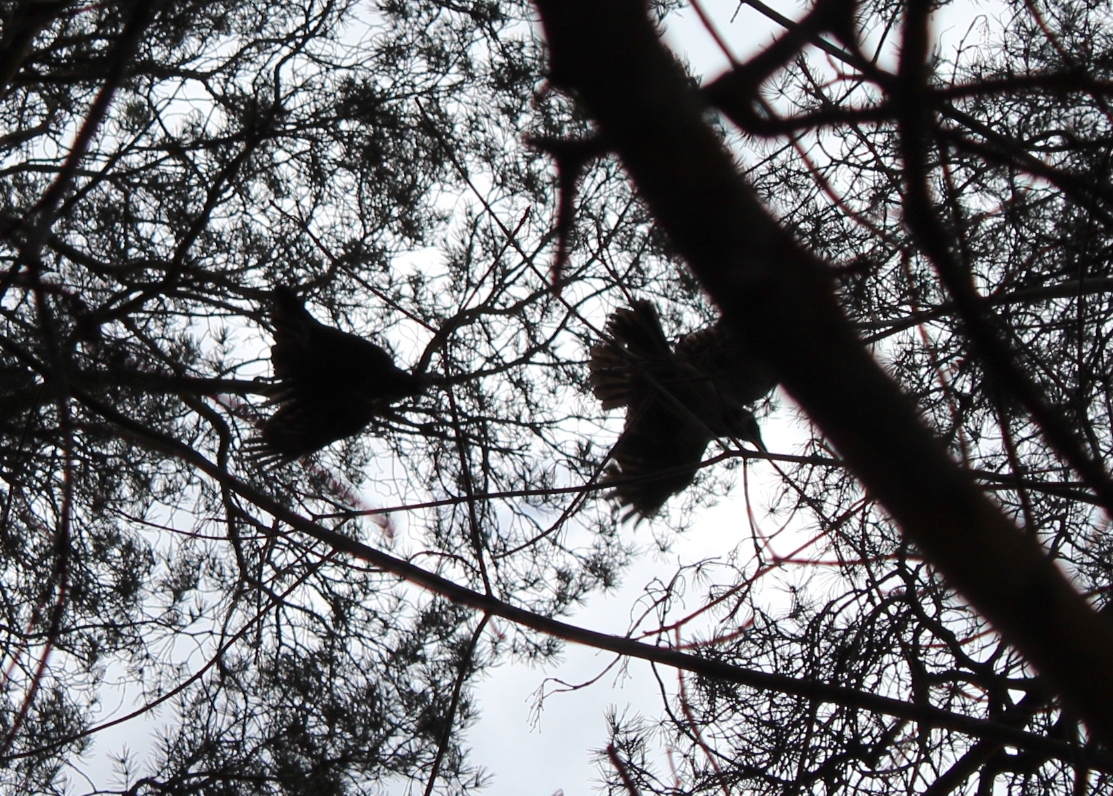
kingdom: Animalia
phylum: Chordata
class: Aves
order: Passeriformes
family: Corvidae
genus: Corvus
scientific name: Corvus corax
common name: Common raven
